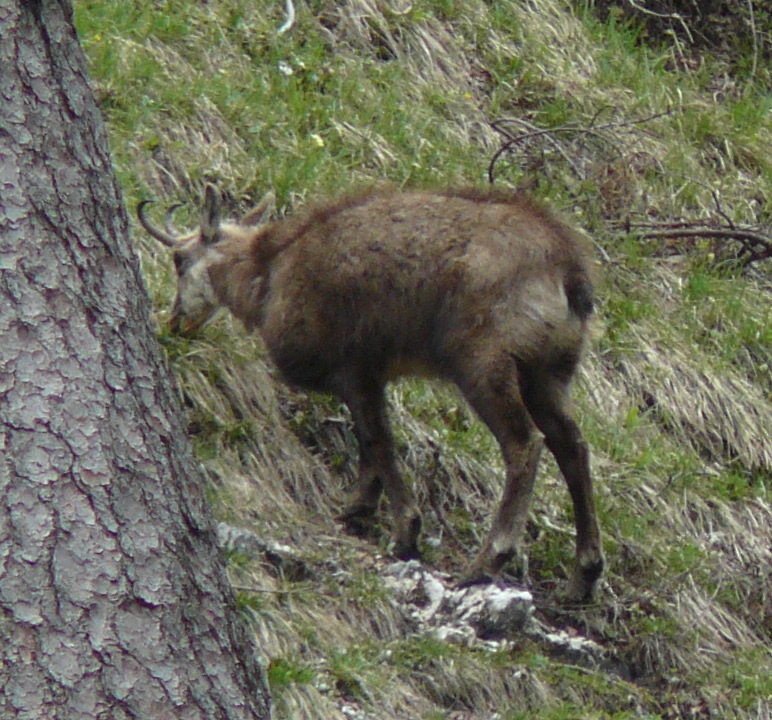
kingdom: Animalia
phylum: Chordata
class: Mammalia
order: Artiodactyla
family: Bovidae
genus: Rupicapra
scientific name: Rupicapra rupicapra
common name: Chamois
